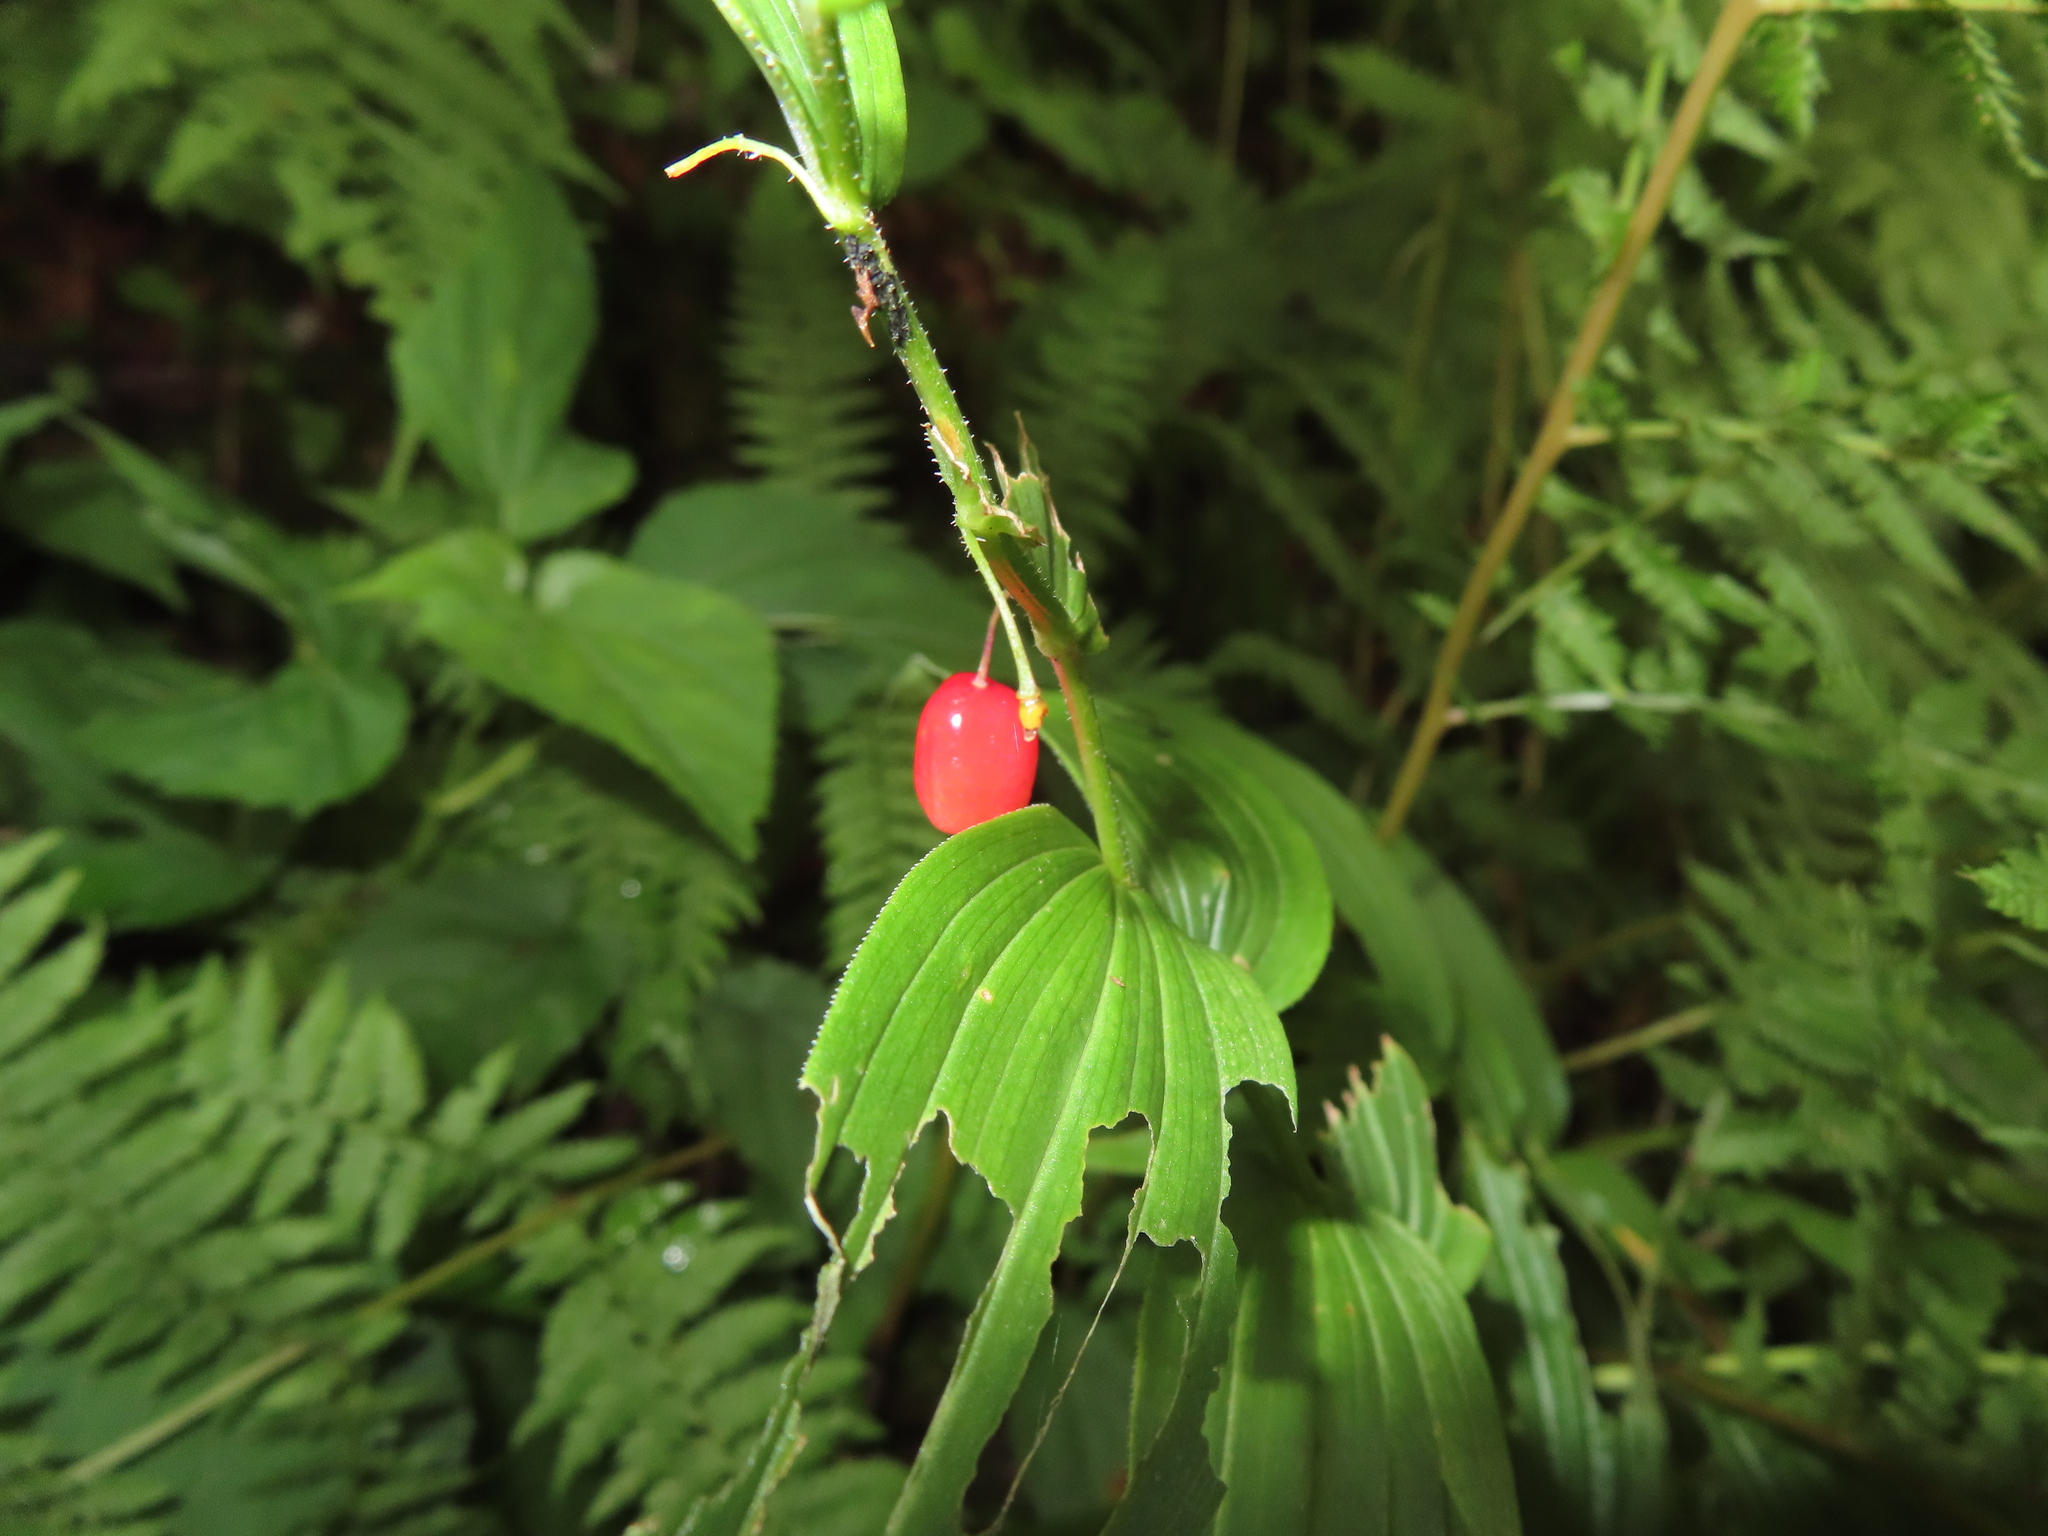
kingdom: Plantae
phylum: Tracheophyta
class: Liliopsida
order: Liliales
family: Liliaceae
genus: Streptopus
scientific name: Streptopus lanceolatus
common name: Rose mandarin
